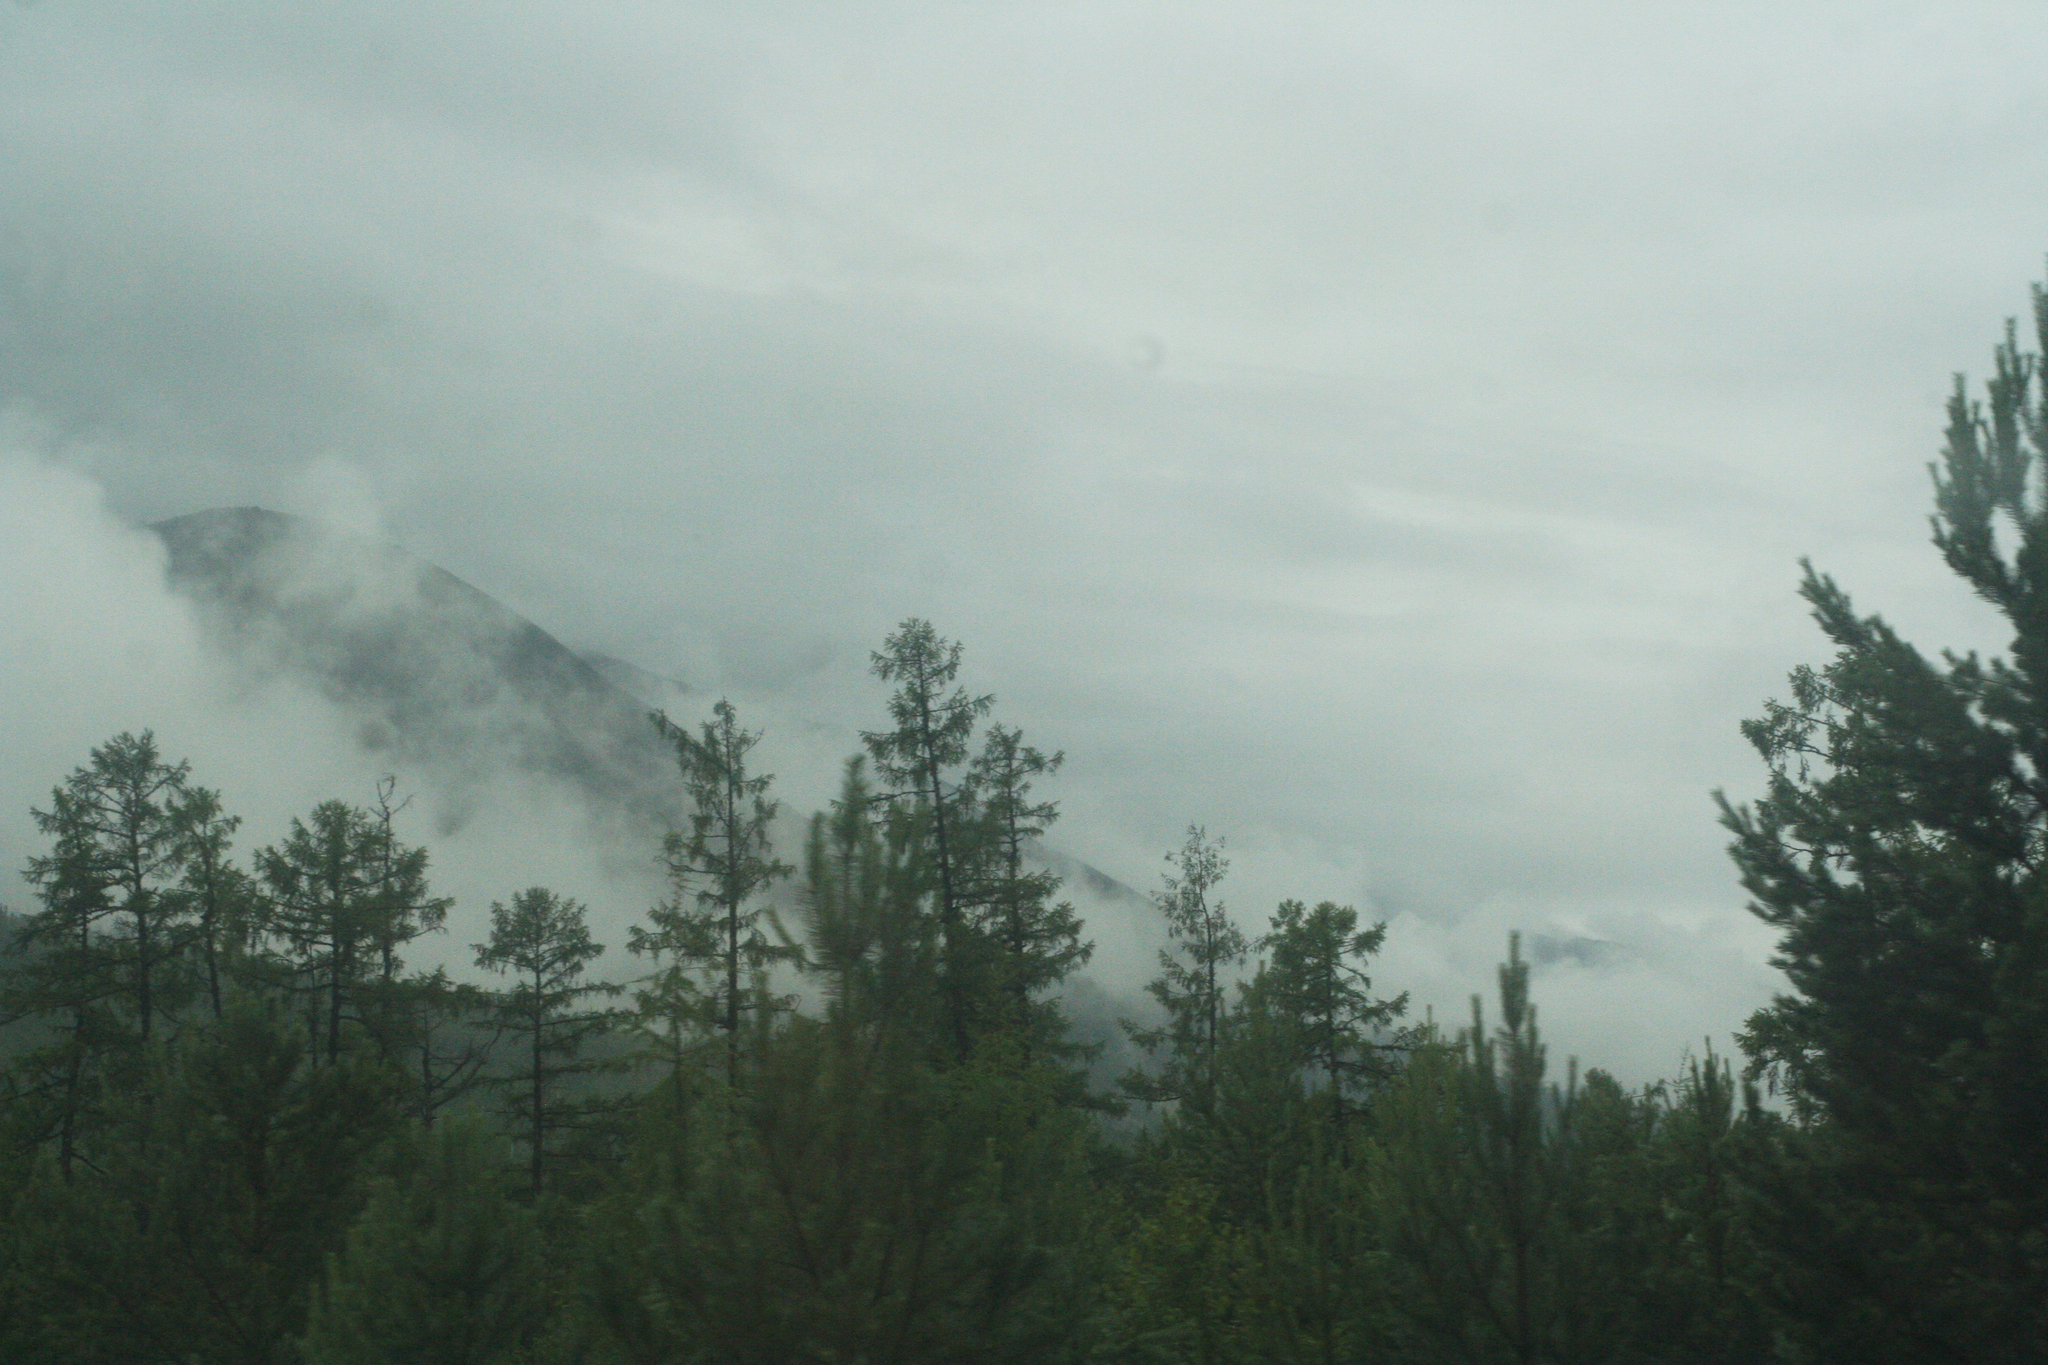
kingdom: Plantae
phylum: Tracheophyta
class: Pinopsida
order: Pinales
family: Pinaceae
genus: Larix
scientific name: Larix gmelinii
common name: Dahurian larch
